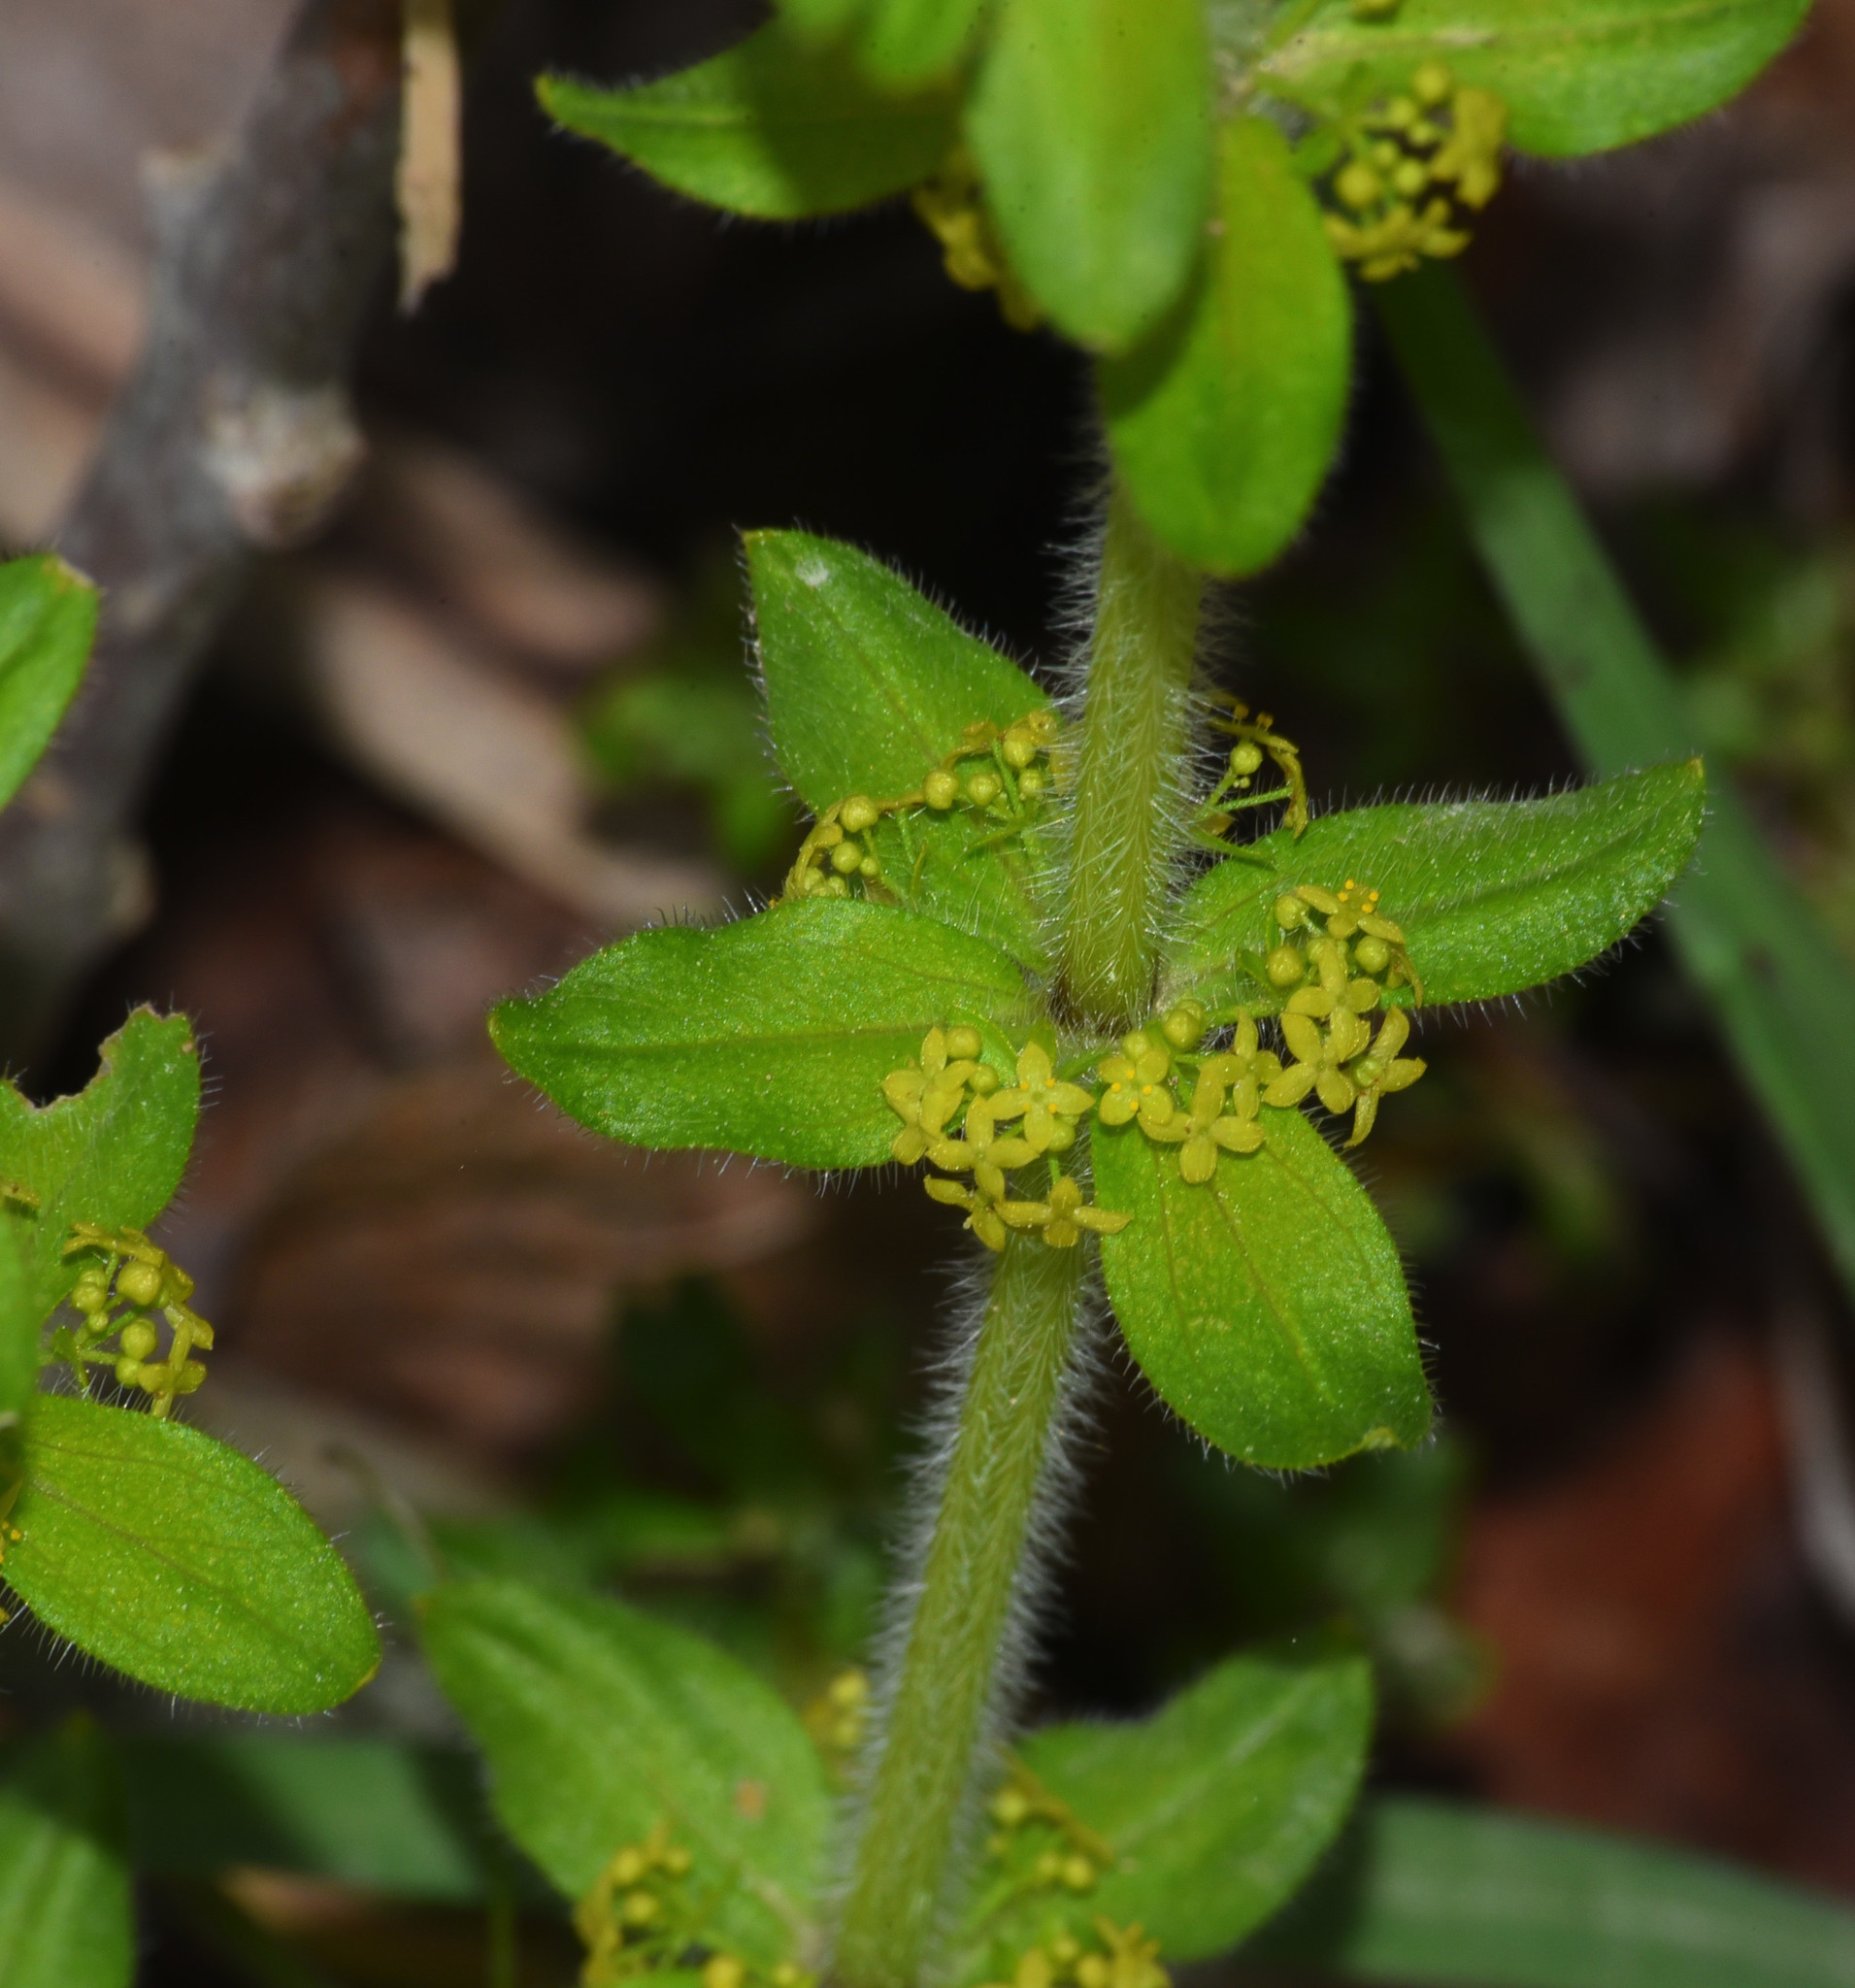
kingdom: Plantae
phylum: Tracheophyta
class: Magnoliopsida
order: Gentianales
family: Rubiaceae
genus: Cruciata
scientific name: Cruciata laevipes
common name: Crosswort
